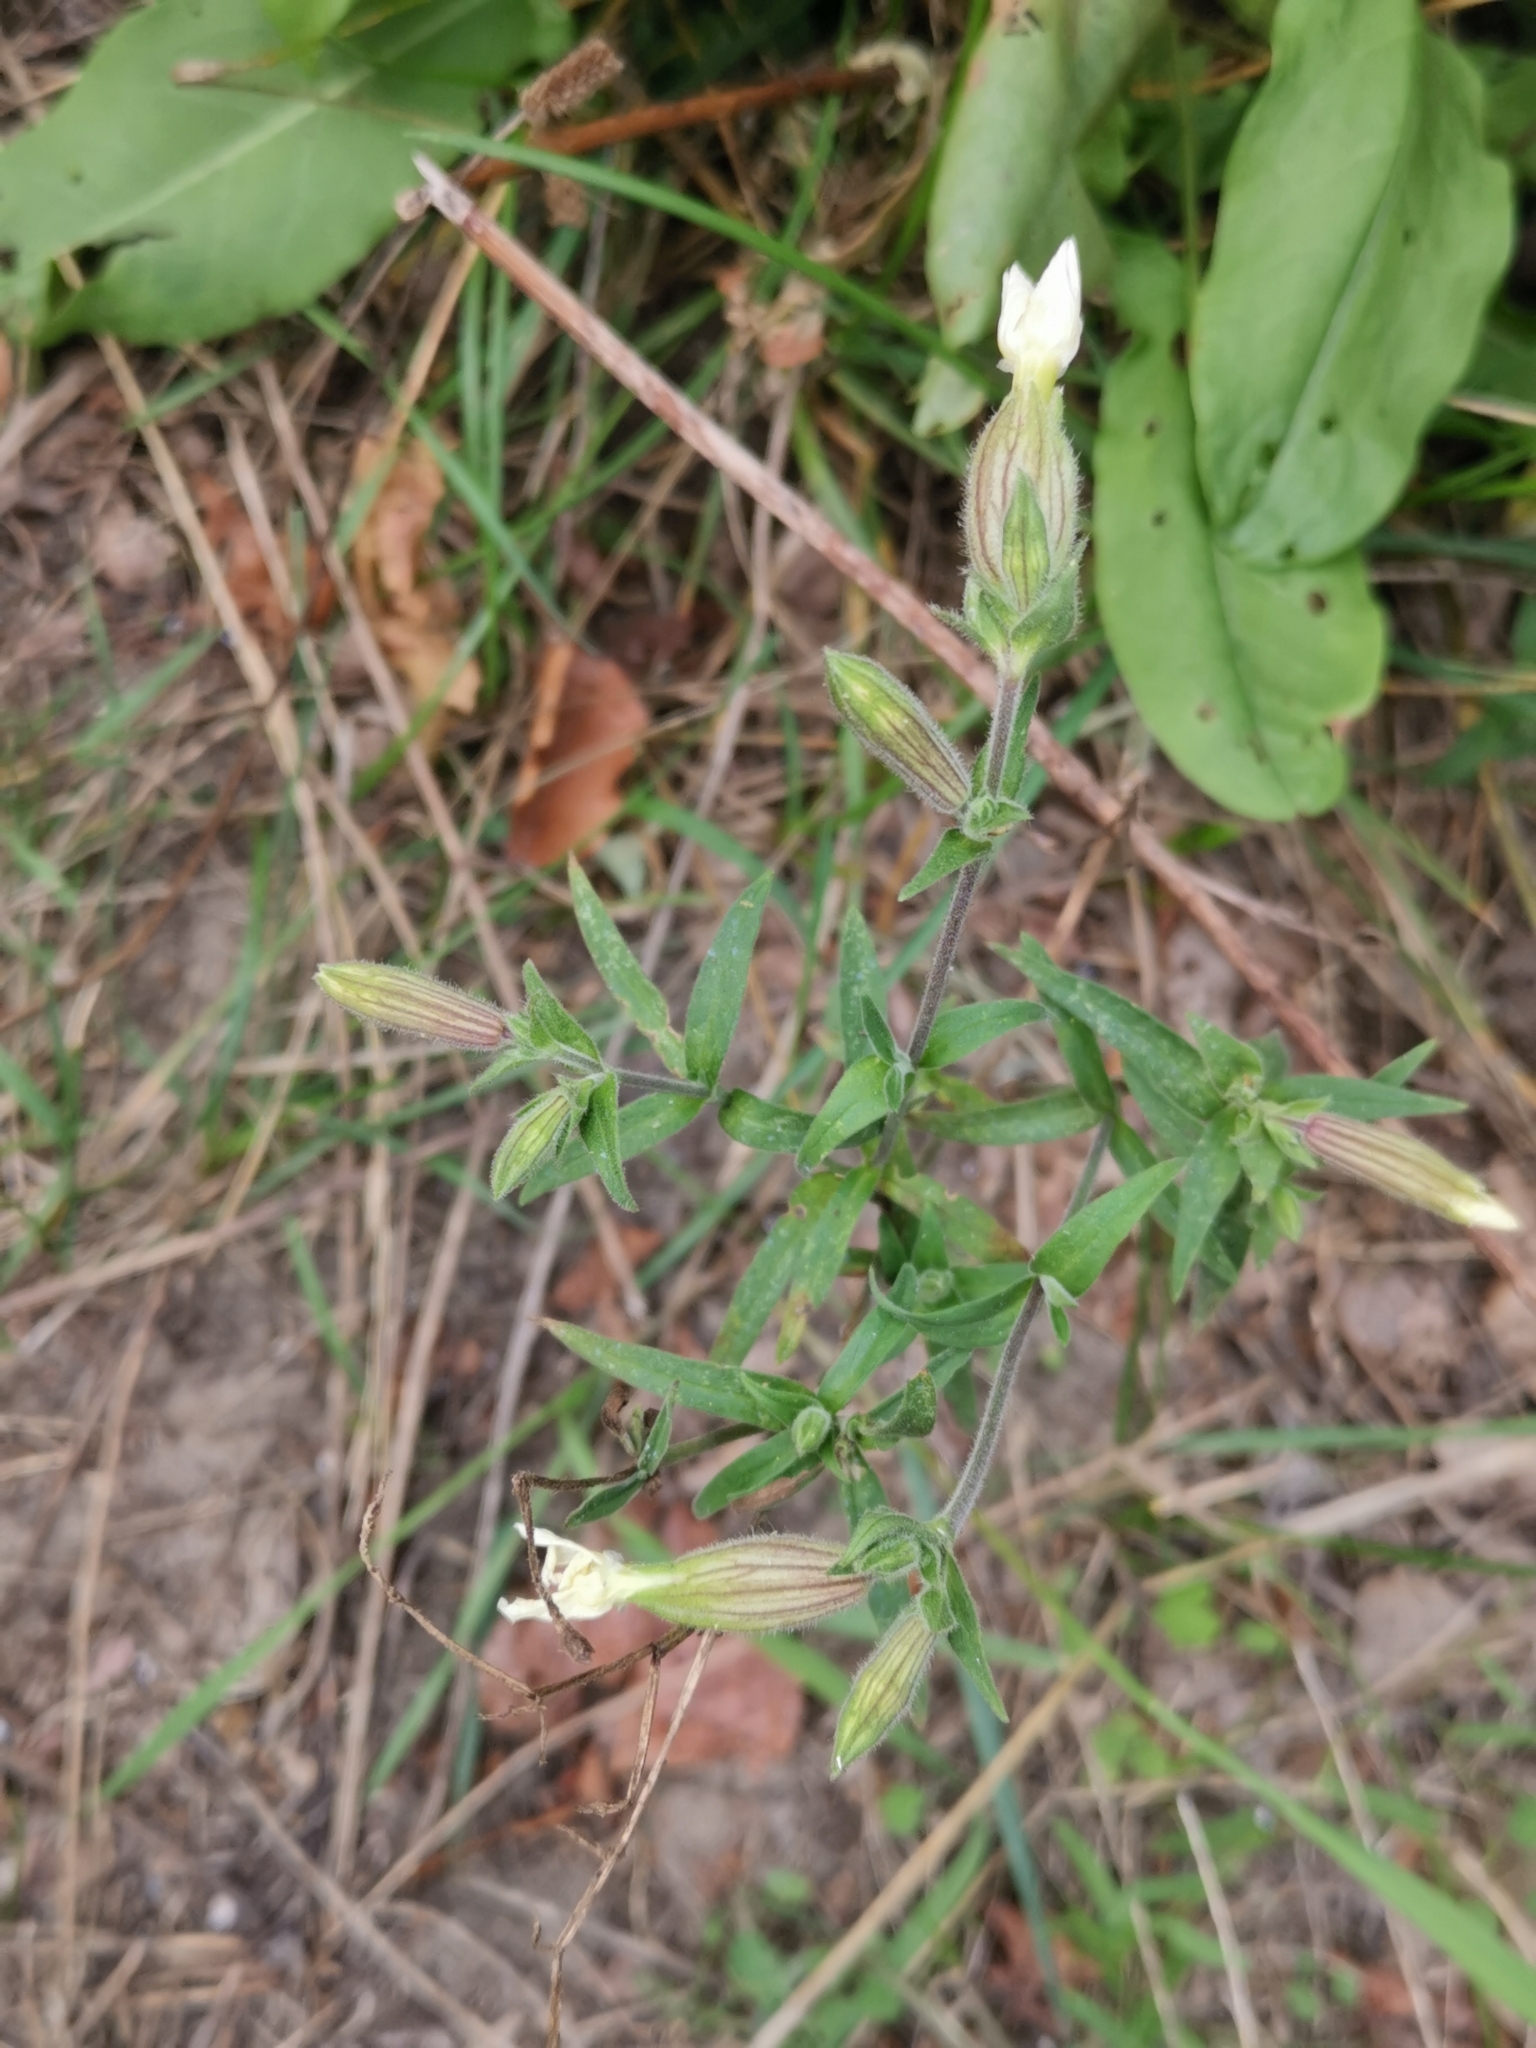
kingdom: Plantae
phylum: Tracheophyta
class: Magnoliopsida
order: Caryophyllales
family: Caryophyllaceae
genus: Silene
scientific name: Silene latifolia
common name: White campion
